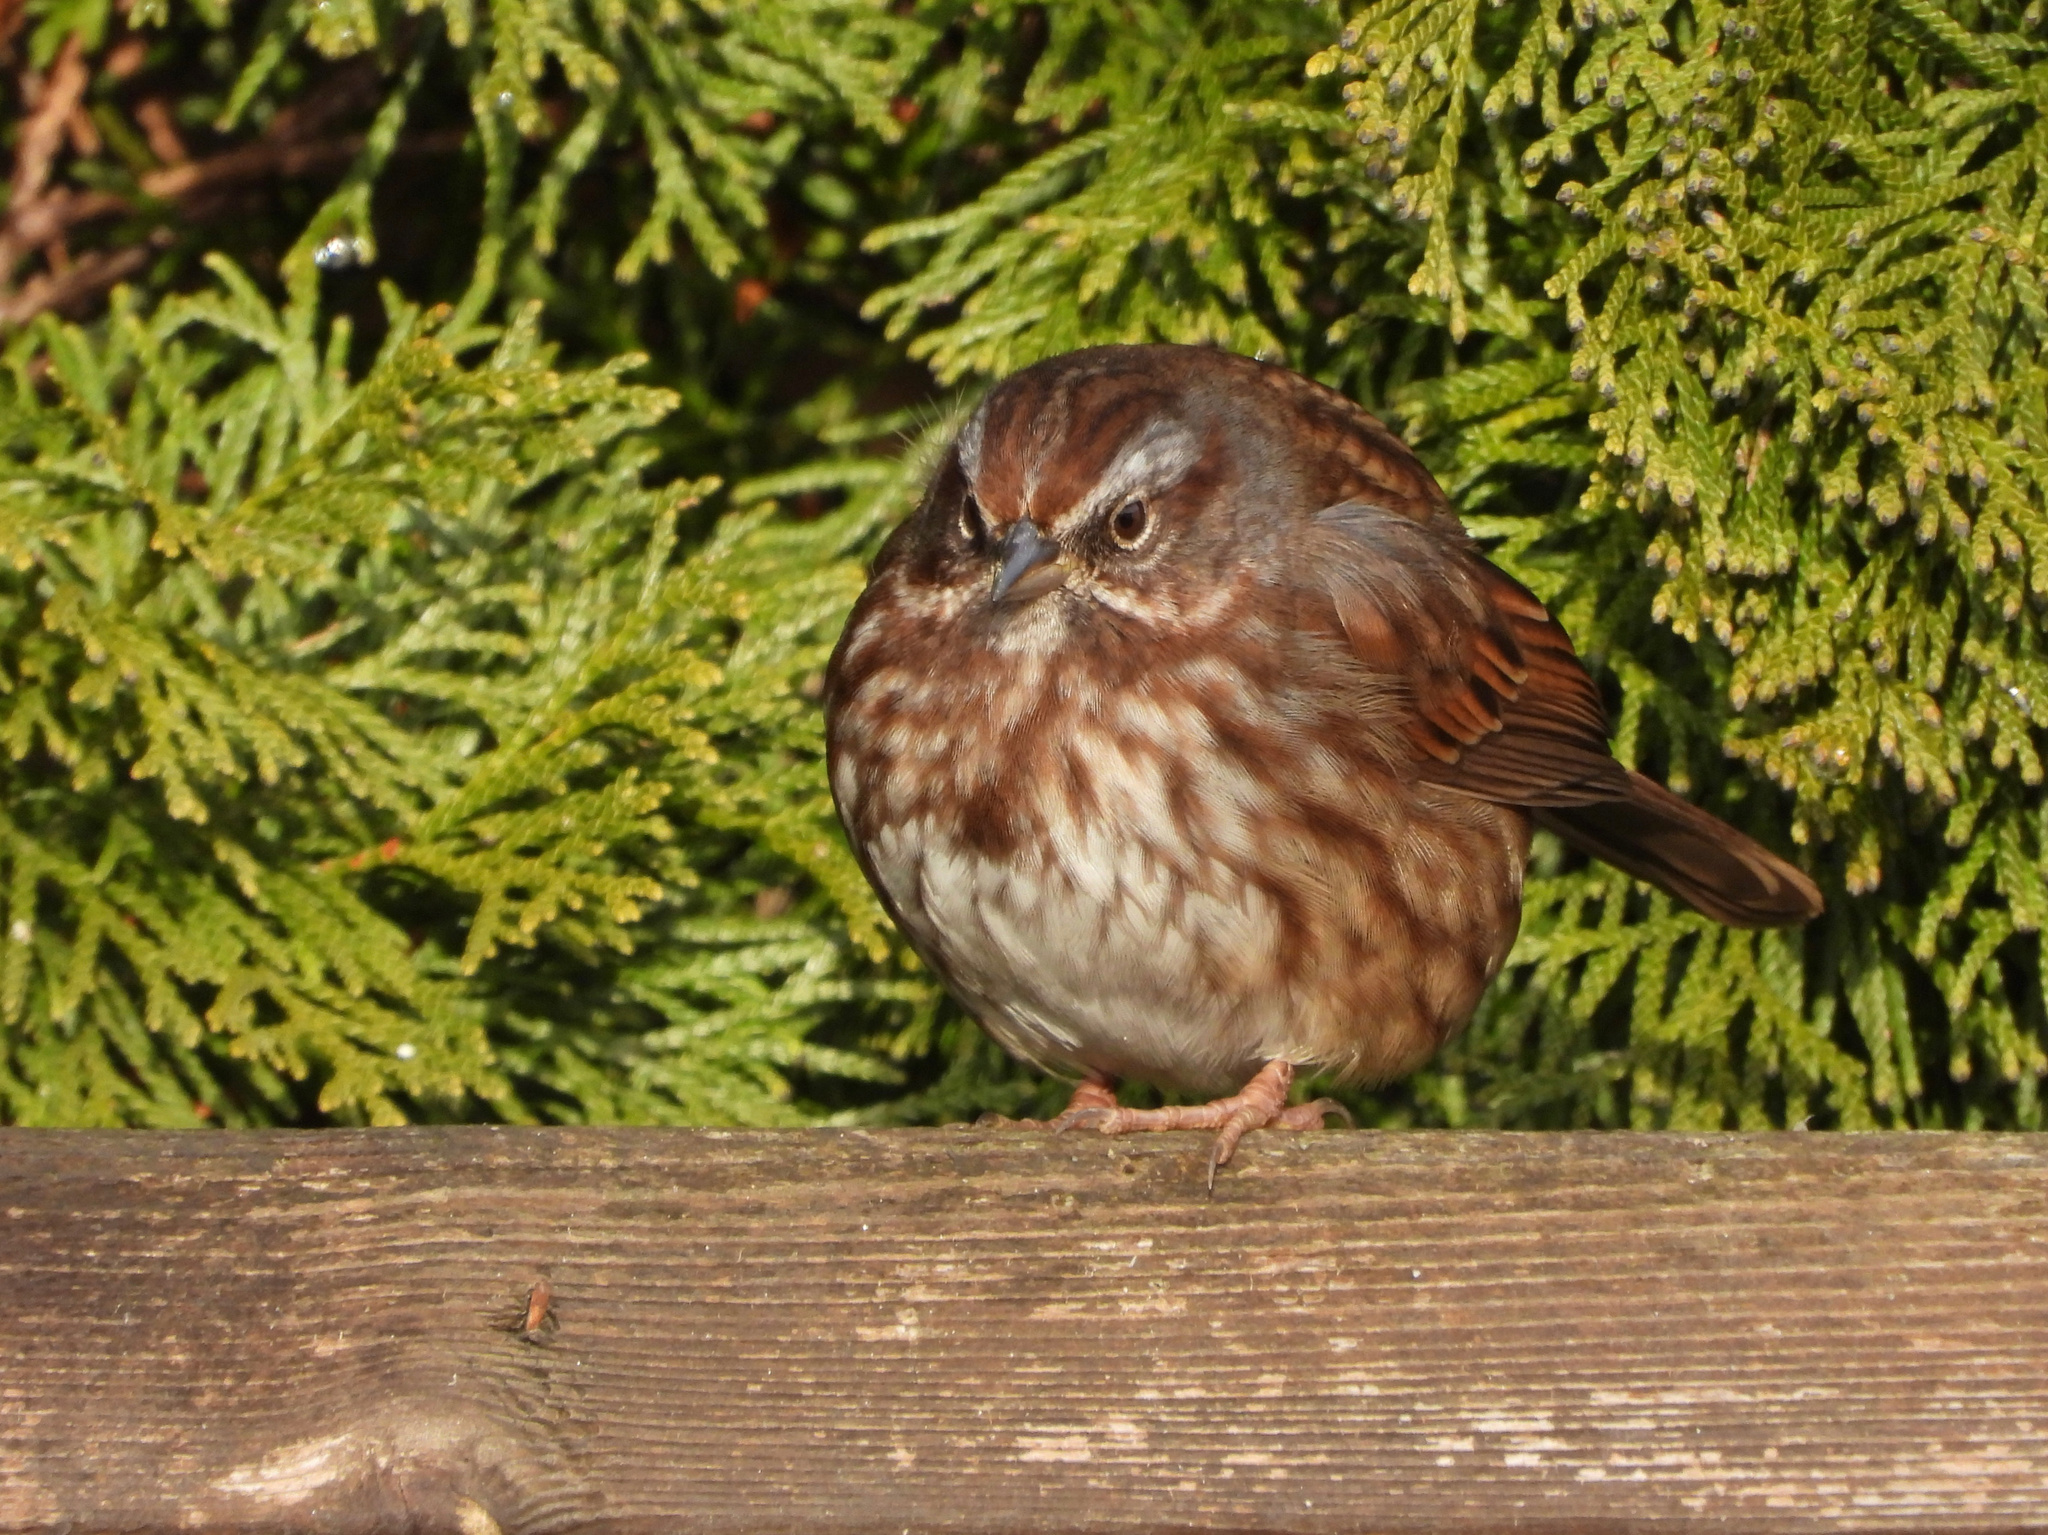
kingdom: Animalia
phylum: Chordata
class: Aves
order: Passeriformes
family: Passerellidae
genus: Melospiza
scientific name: Melospiza melodia
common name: Song sparrow
